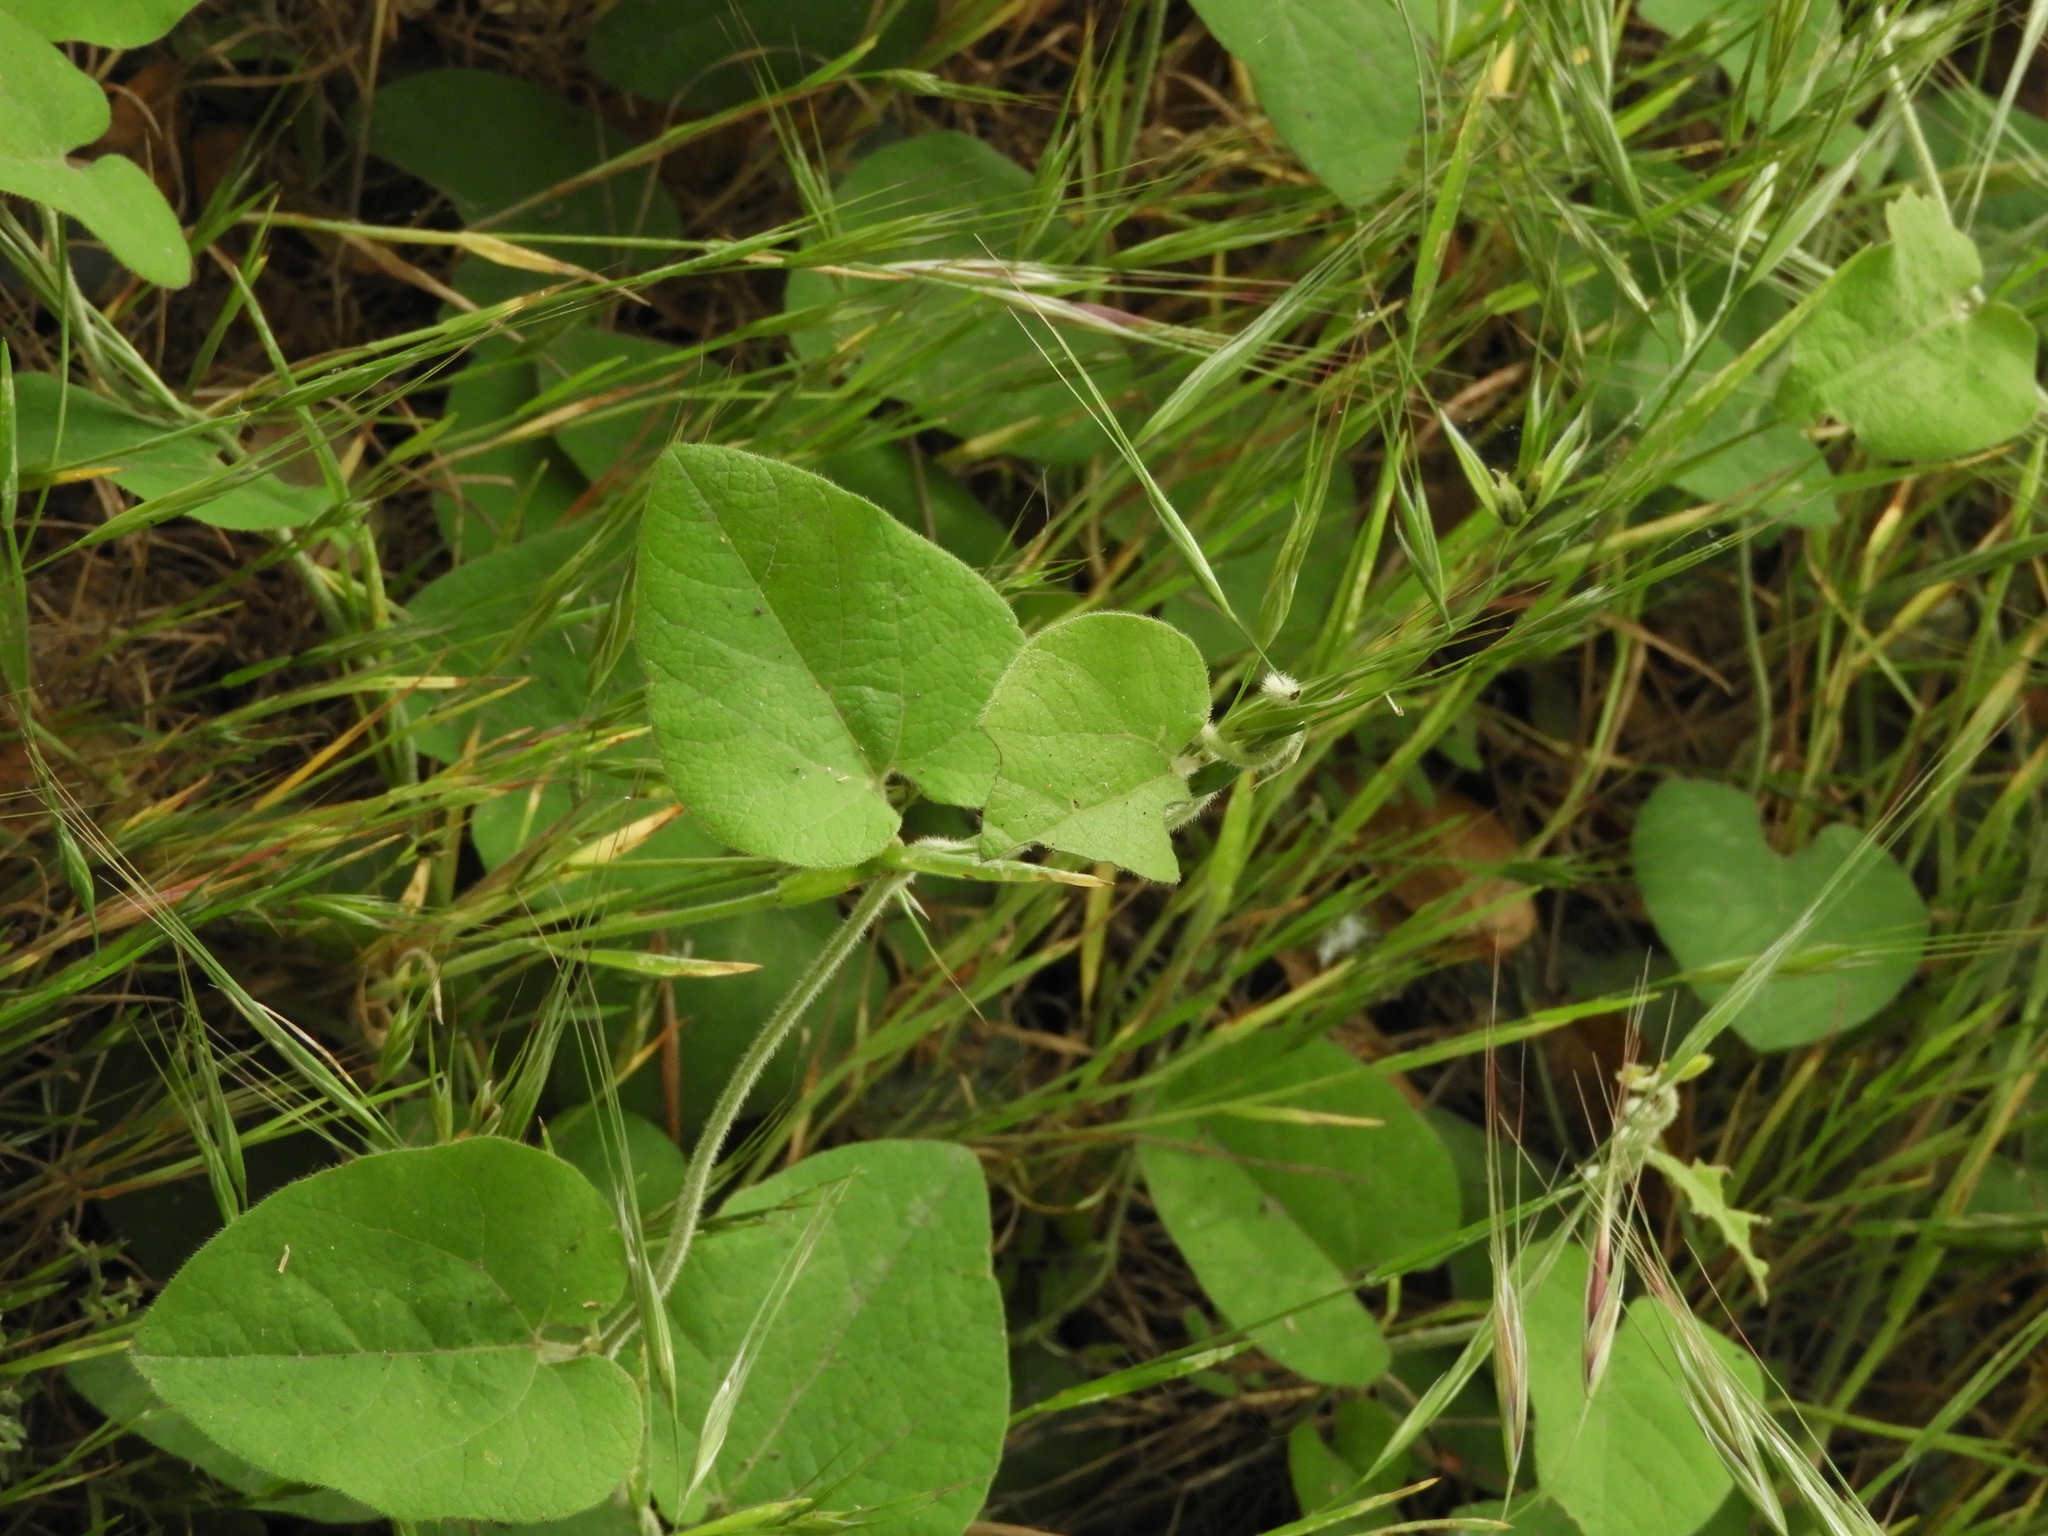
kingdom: Plantae
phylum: Tracheophyta
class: Magnoliopsida
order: Piperales
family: Aristolochiaceae
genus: Isotrema
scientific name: Isotrema californicum
